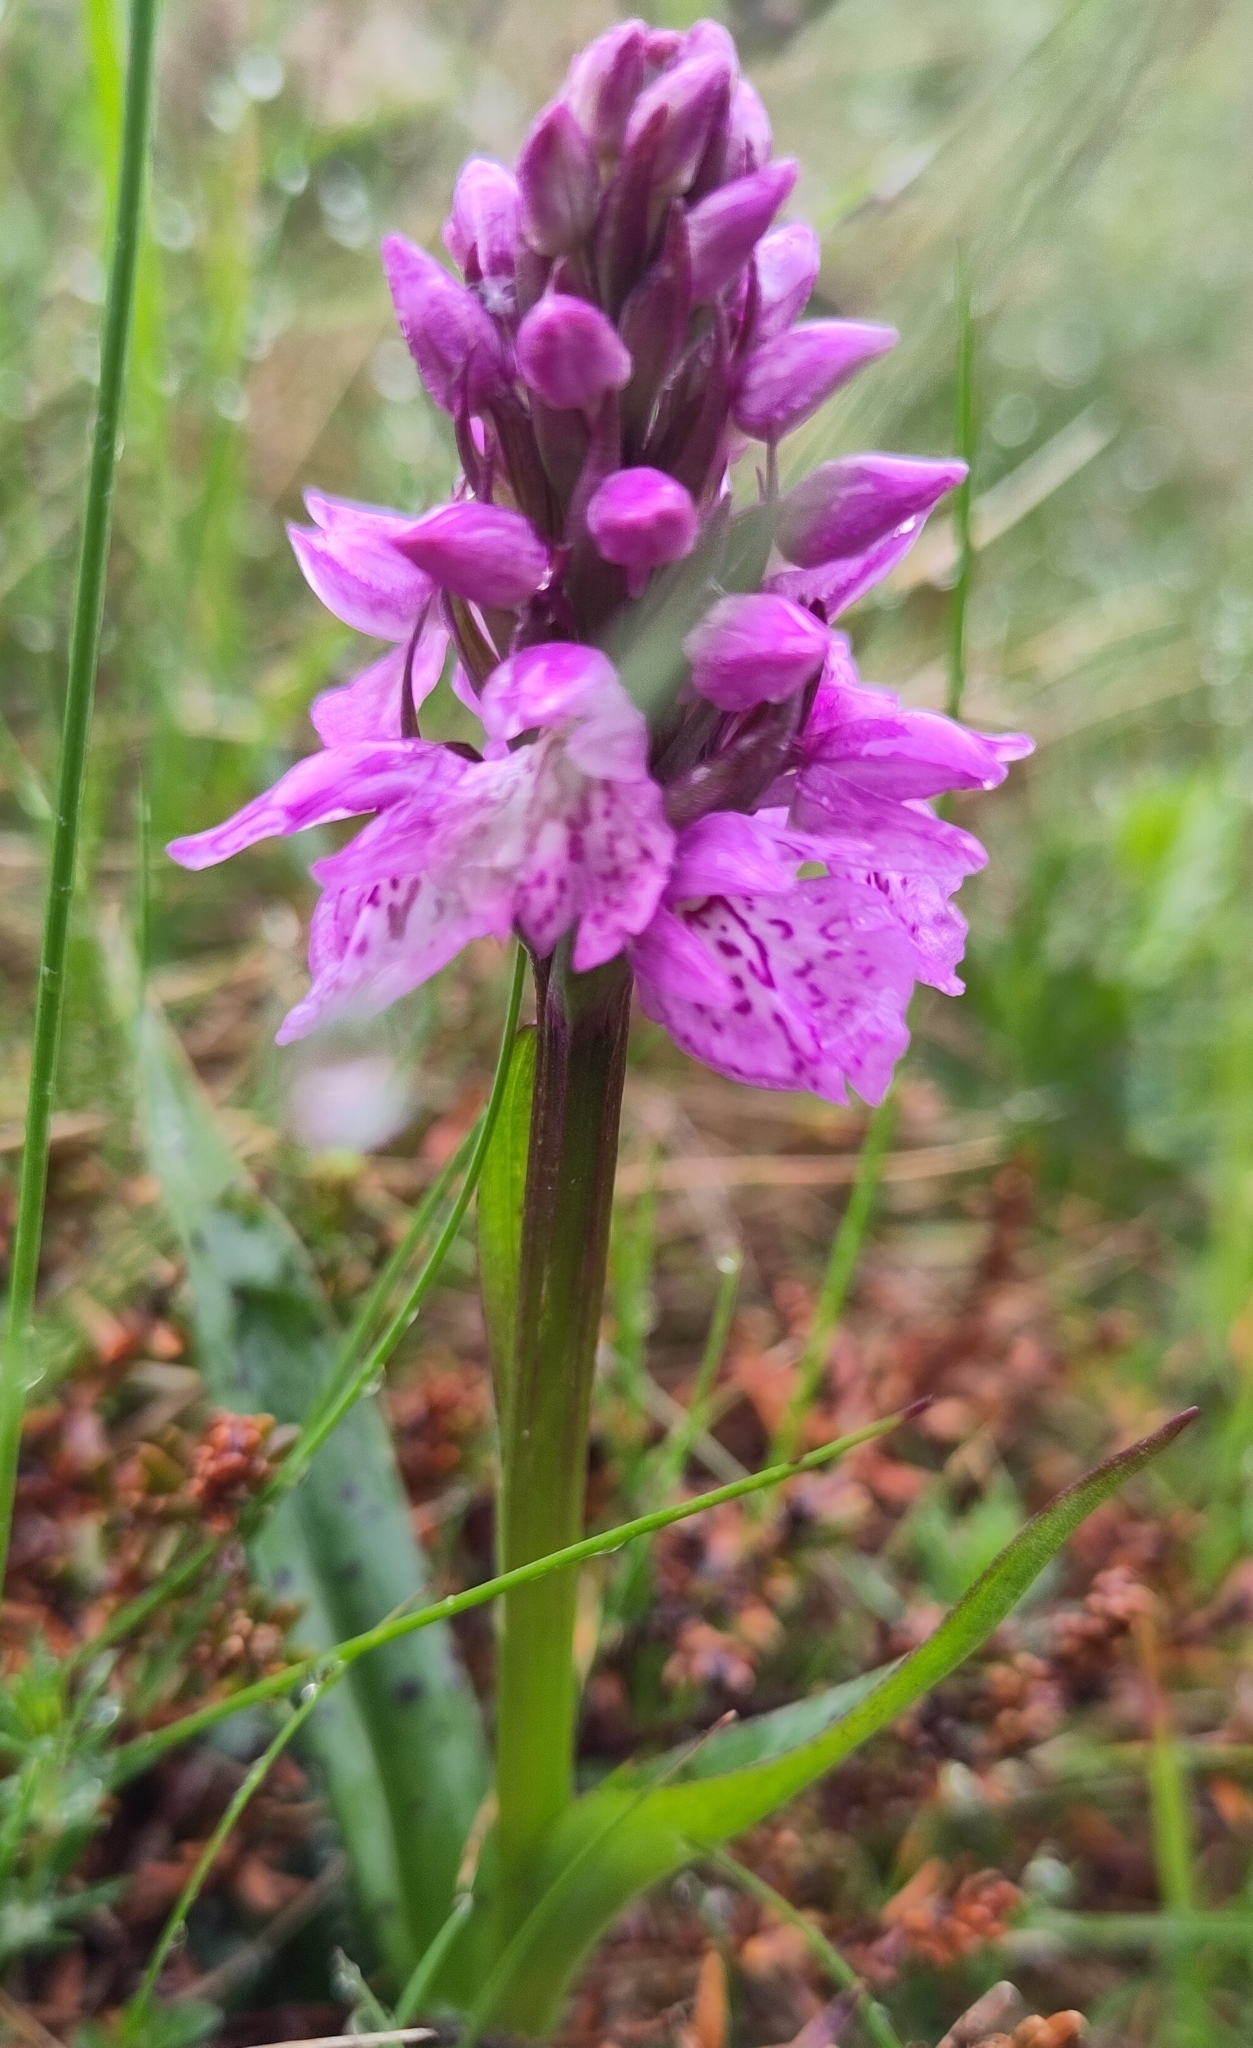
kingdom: Plantae
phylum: Tracheophyta
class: Liliopsida
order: Asparagales
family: Orchidaceae
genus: Dactylorhiza
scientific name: Dactylorhiza maculata
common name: Heath spotted-orchid
